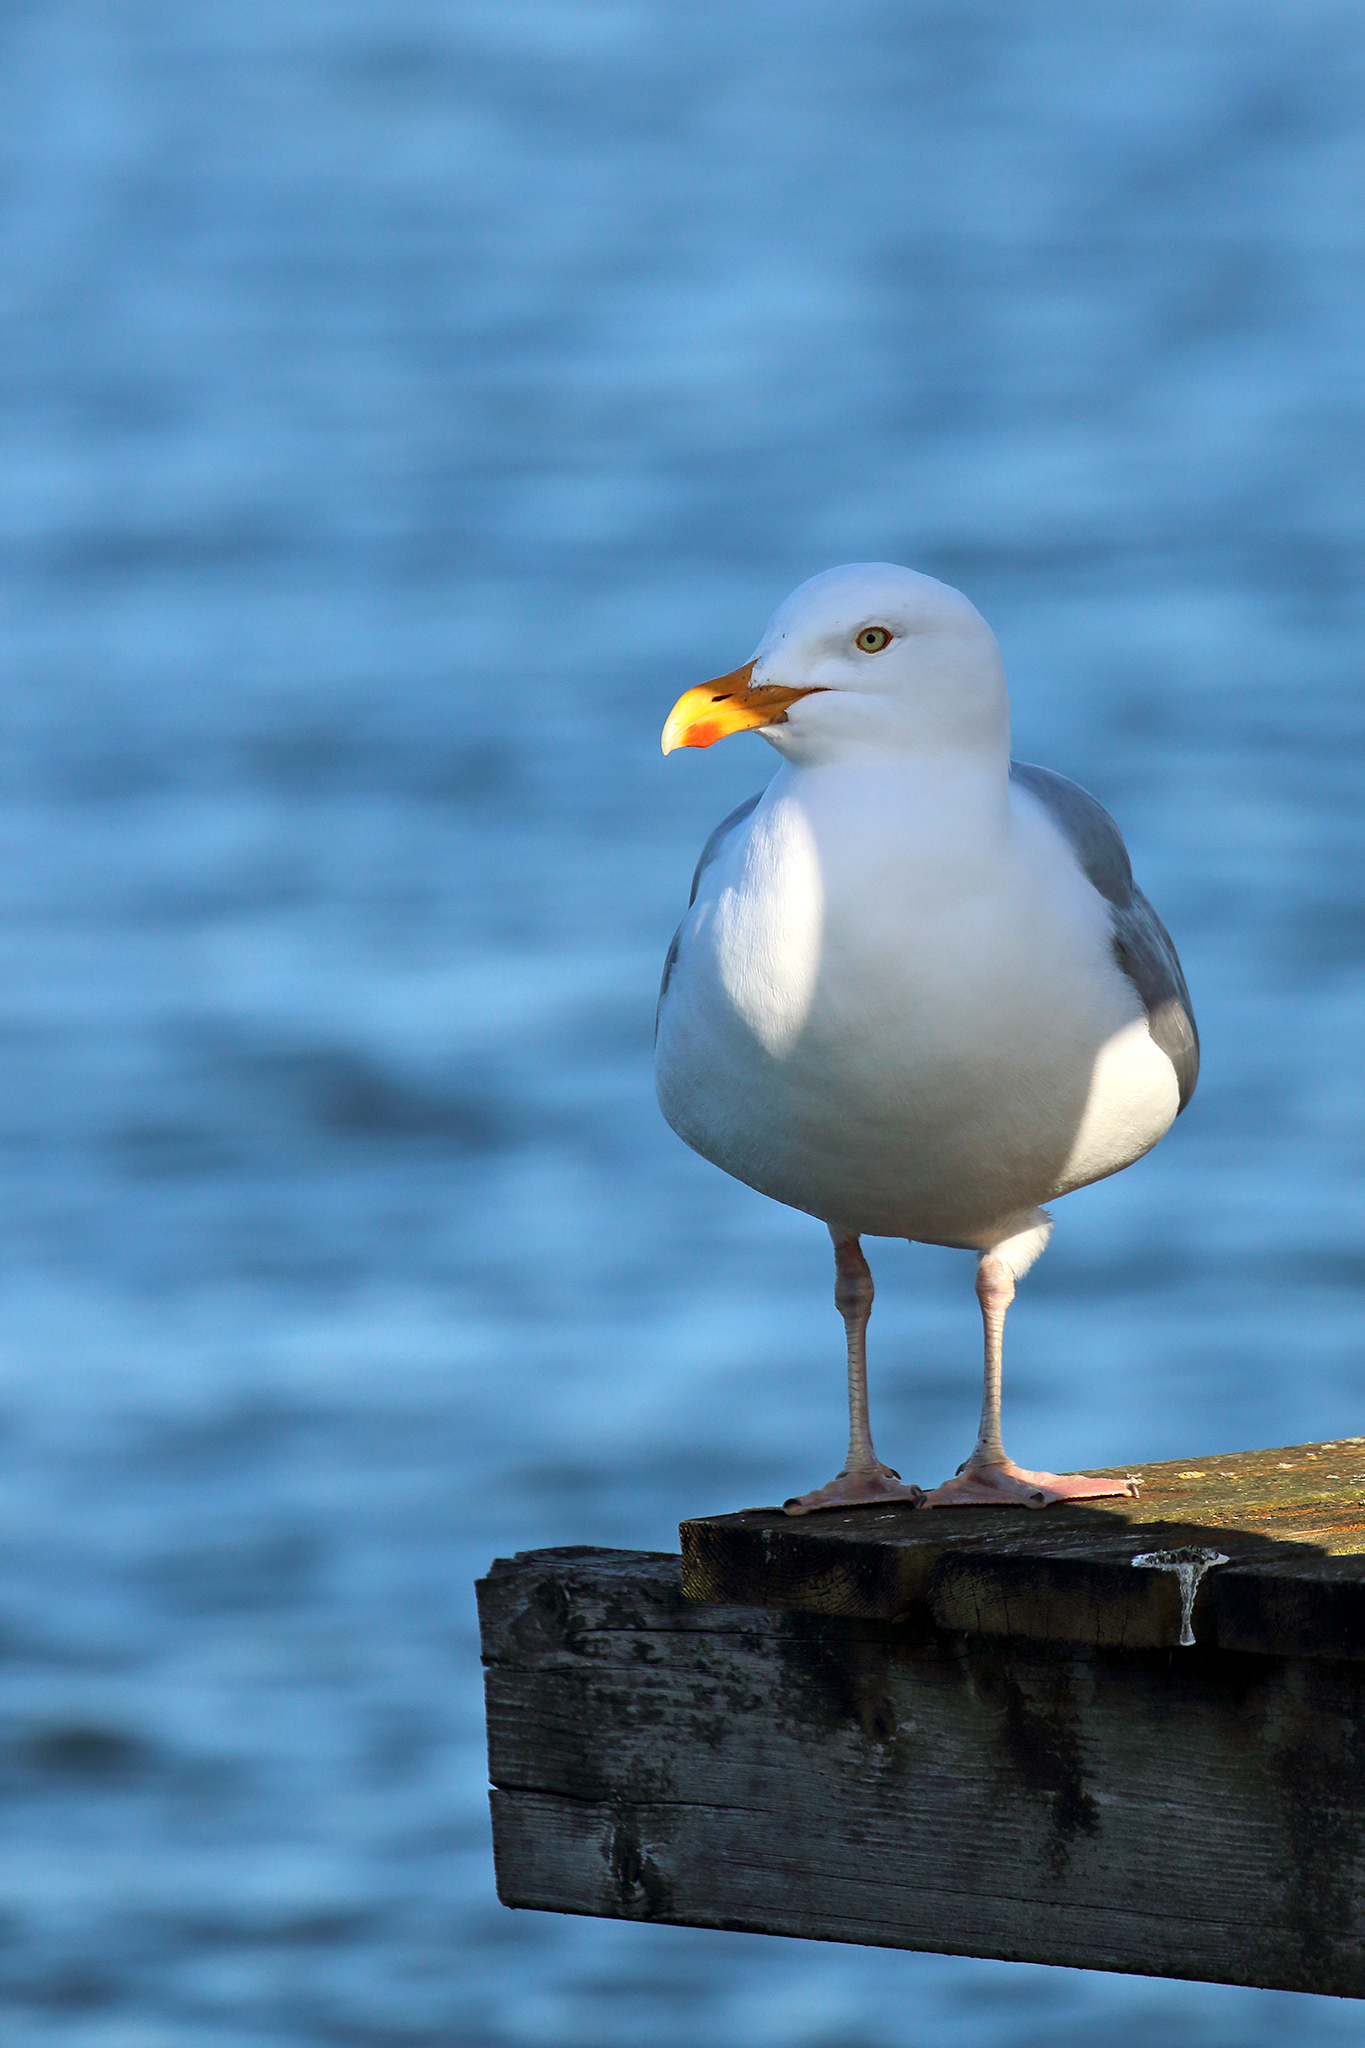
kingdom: Animalia
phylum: Chordata
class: Aves
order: Charadriiformes
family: Laridae
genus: Larus
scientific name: Larus argentatus
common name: Herring gull
